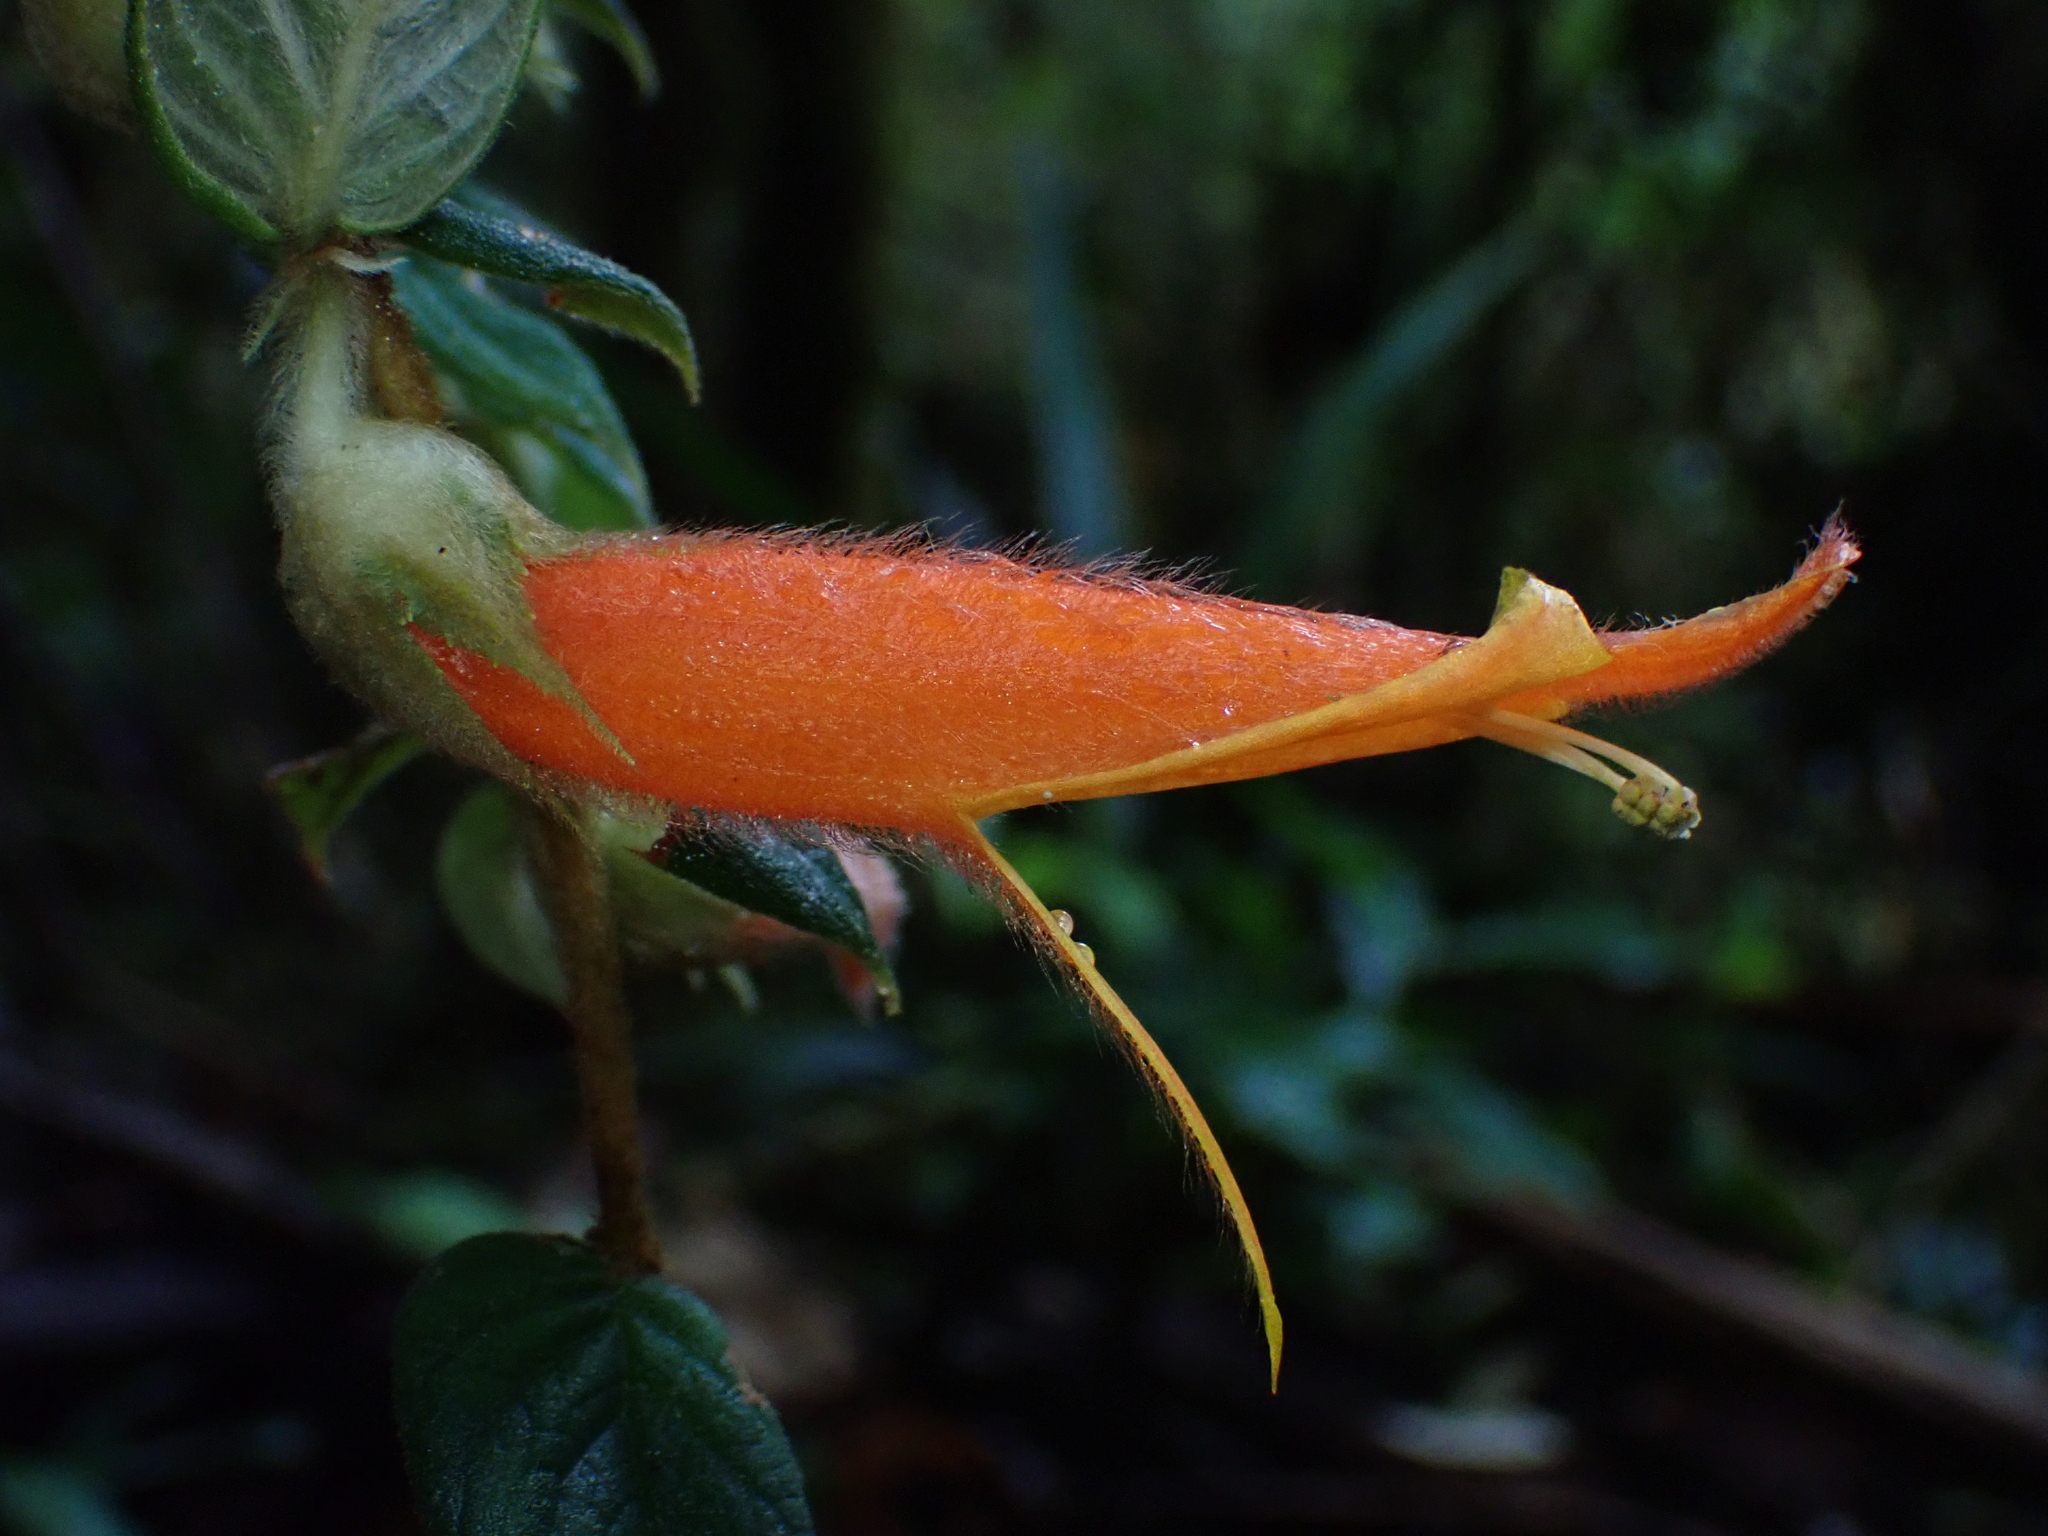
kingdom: Plantae
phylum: Tracheophyta
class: Magnoliopsida
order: Lamiales
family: Gesneriaceae
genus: Columnea
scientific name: Columnea pendens
